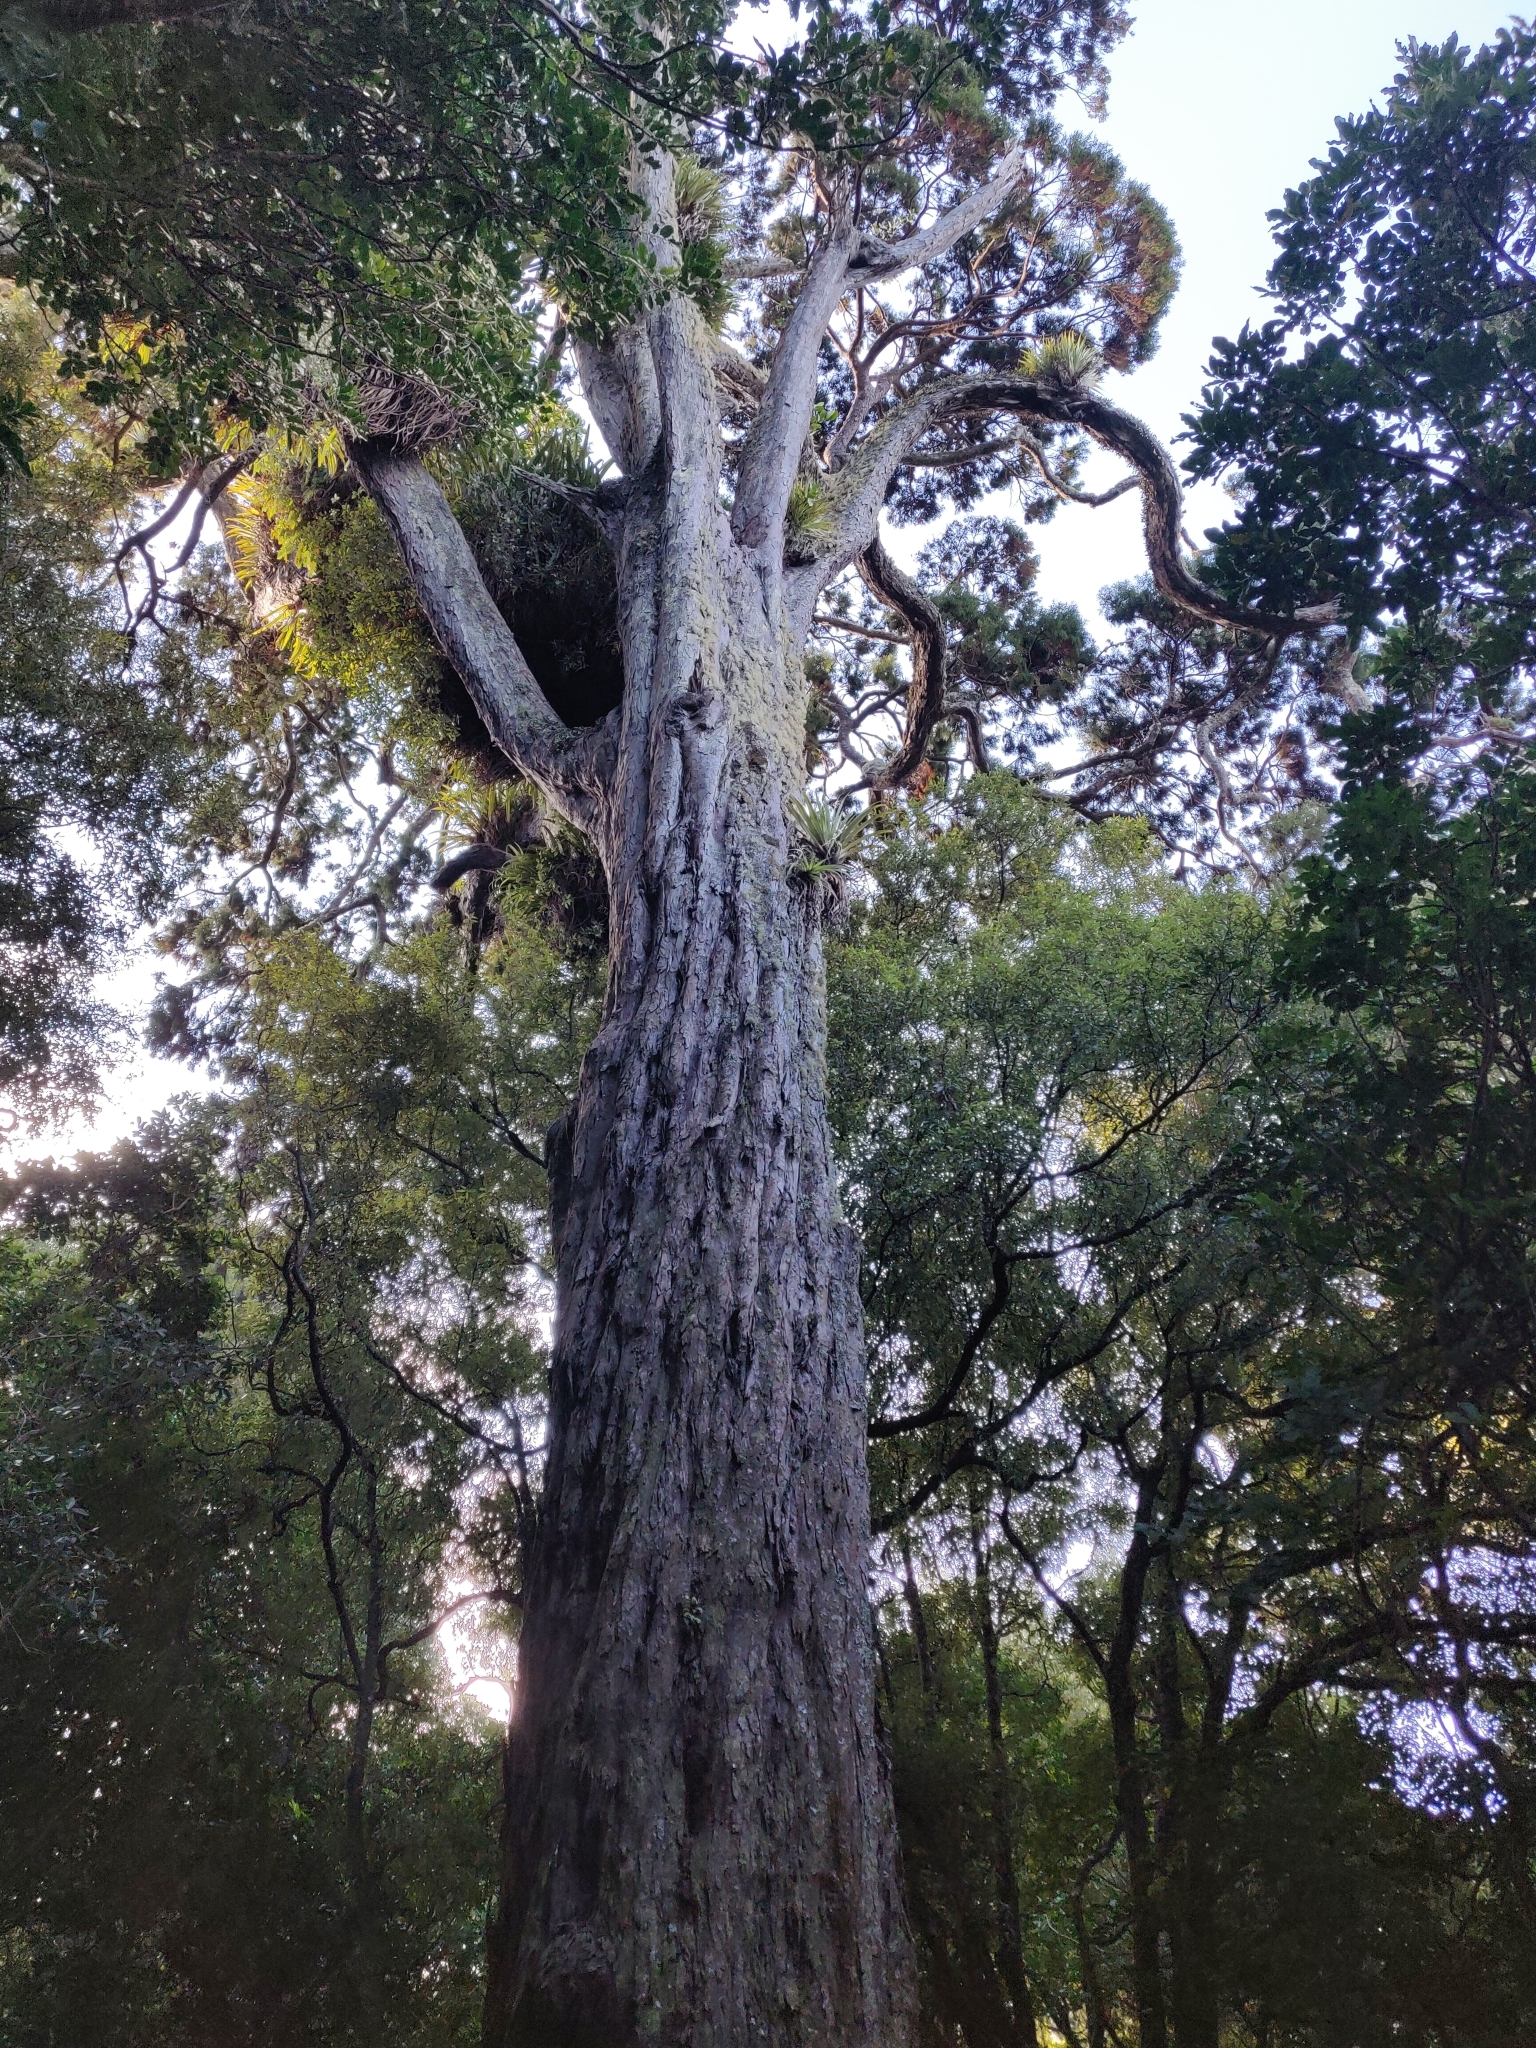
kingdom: Plantae
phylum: Tracheophyta
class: Pinopsida
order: Pinales
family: Podocarpaceae
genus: Dacrydium
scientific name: Dacrydium cupressinum
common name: Red pine
